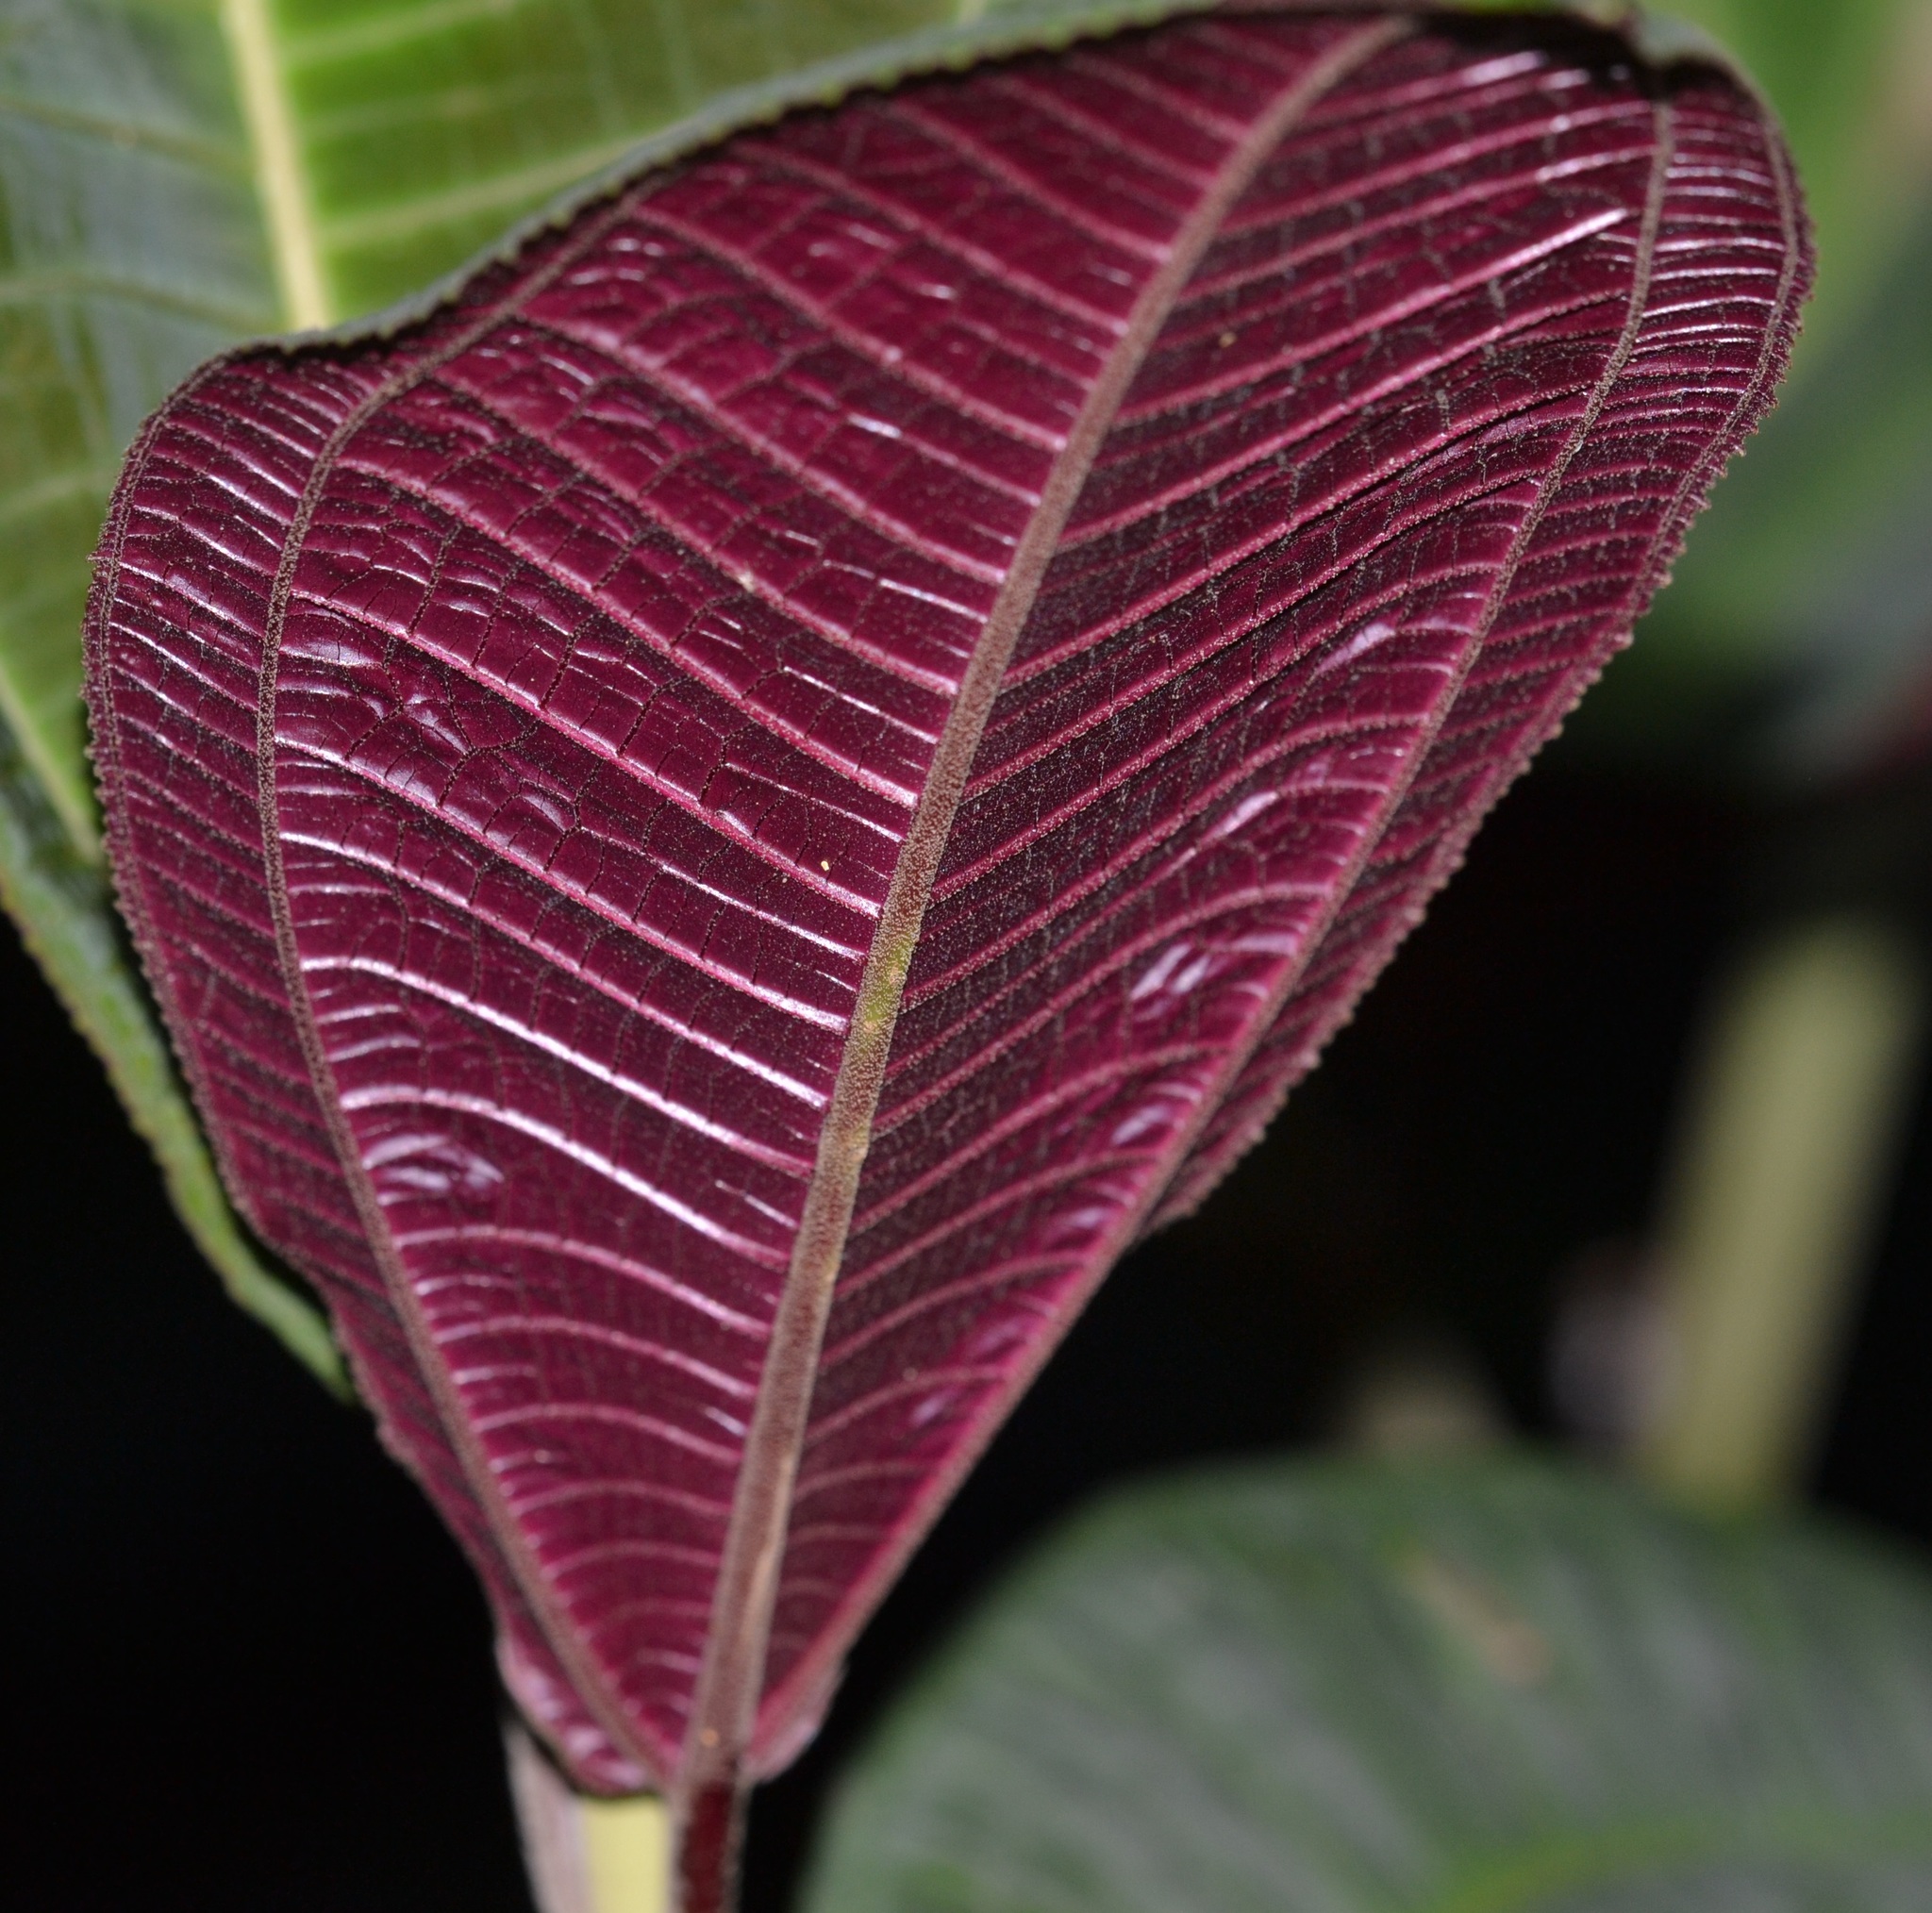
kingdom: Plantae
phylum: Tracheophyta
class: Magnoliopsida
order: Myrtales
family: Melastomataceae
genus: Miconia
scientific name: Miconia calvescens
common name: Purple plague
